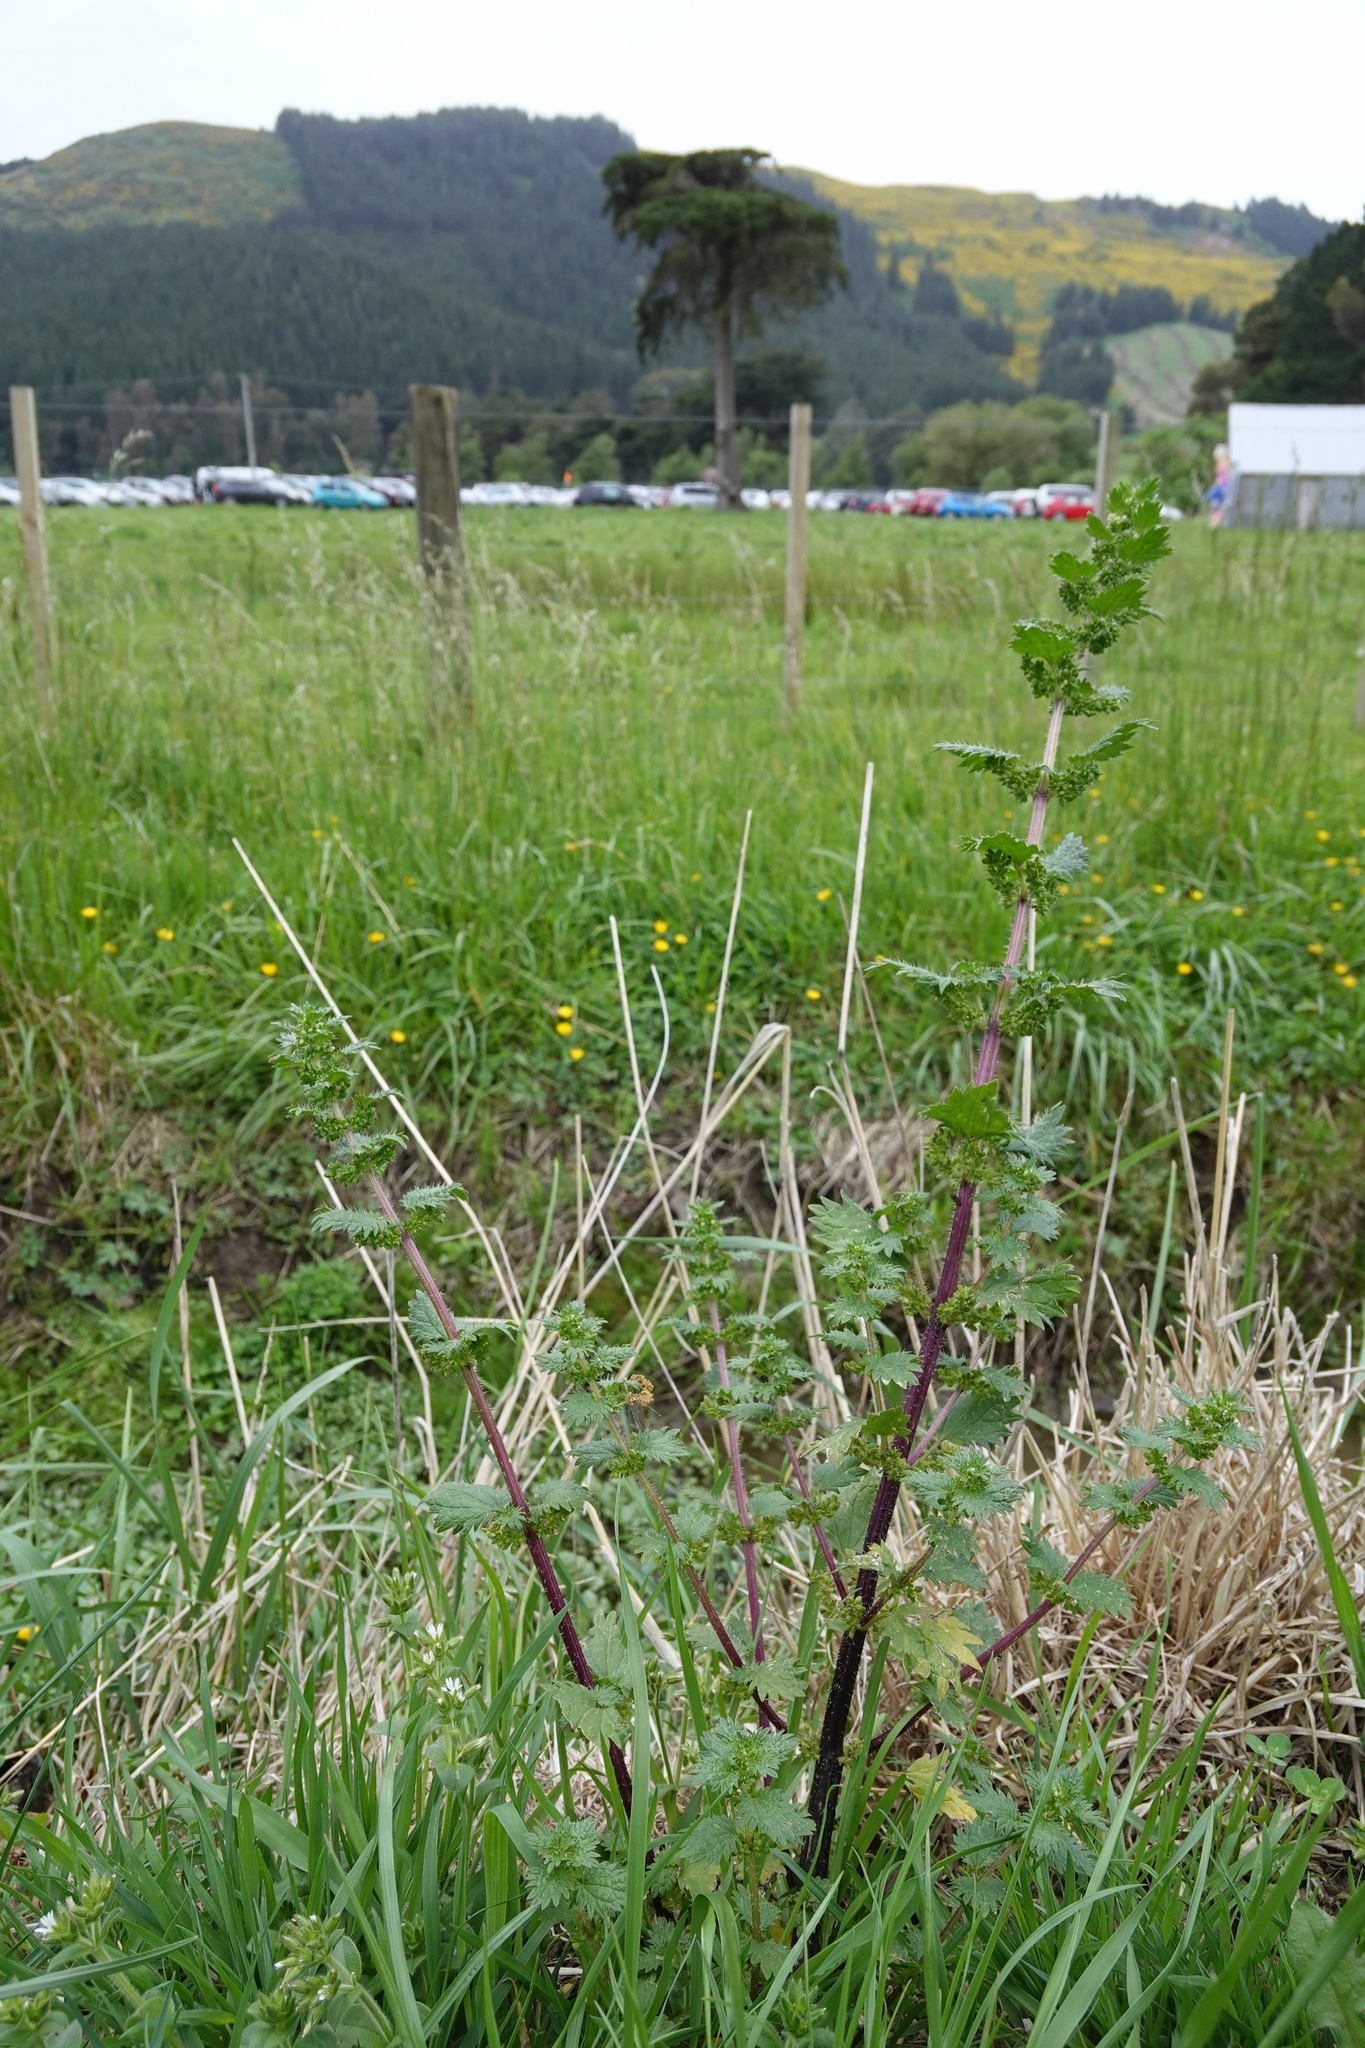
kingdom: Plantae
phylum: Tracheophyta
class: Magnoliopsida
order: Rosales
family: Urticaceae
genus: Urtica
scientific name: Urtica urens
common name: Dwarf nettle
